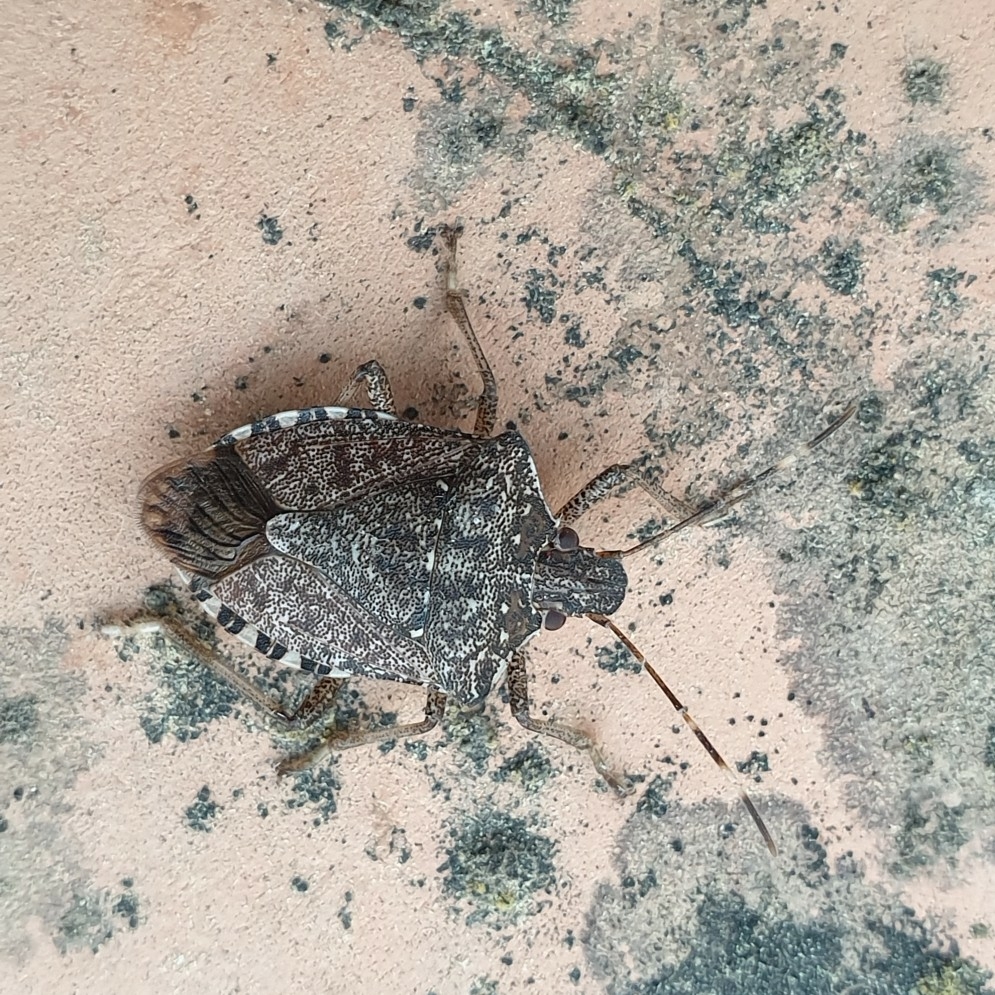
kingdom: Animalia
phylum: Arthropoda
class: Insecta
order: Hemiptera
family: Pentatomidae
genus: Halyomorpha
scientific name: Halyomorpha halys
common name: Brown marmorated stink bug
